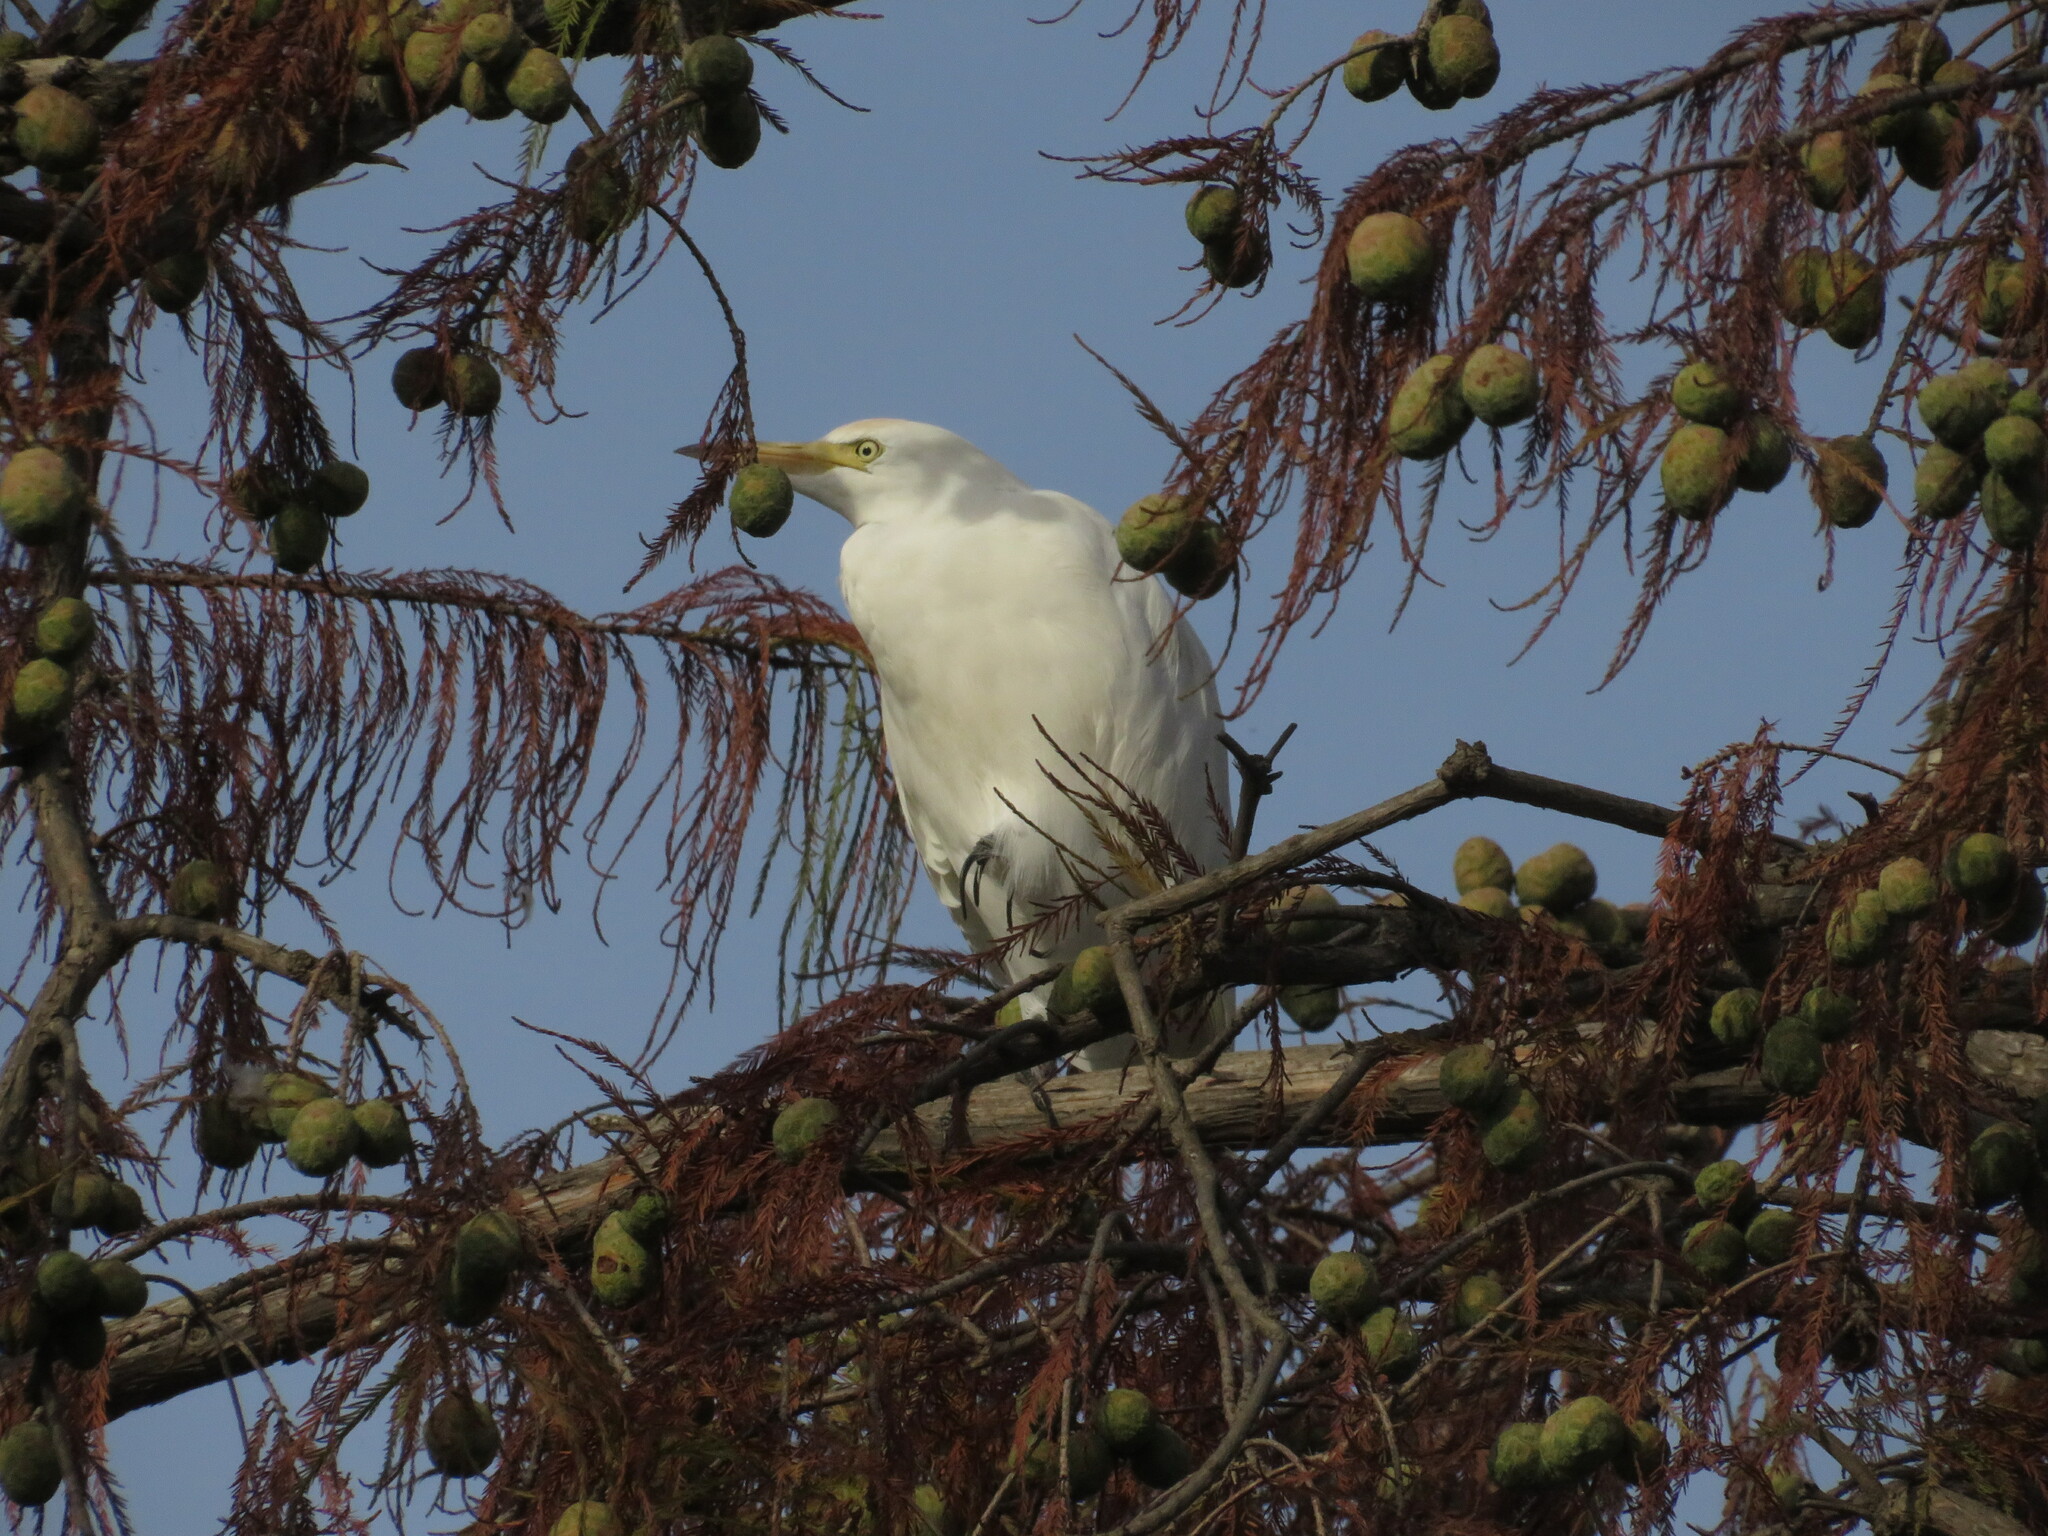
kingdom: Animalia
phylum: Chordata
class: Aves
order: Pelecaniformes
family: Ardeidae
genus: Bubulcus
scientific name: Bubulcus ibis
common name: Cattle egret
